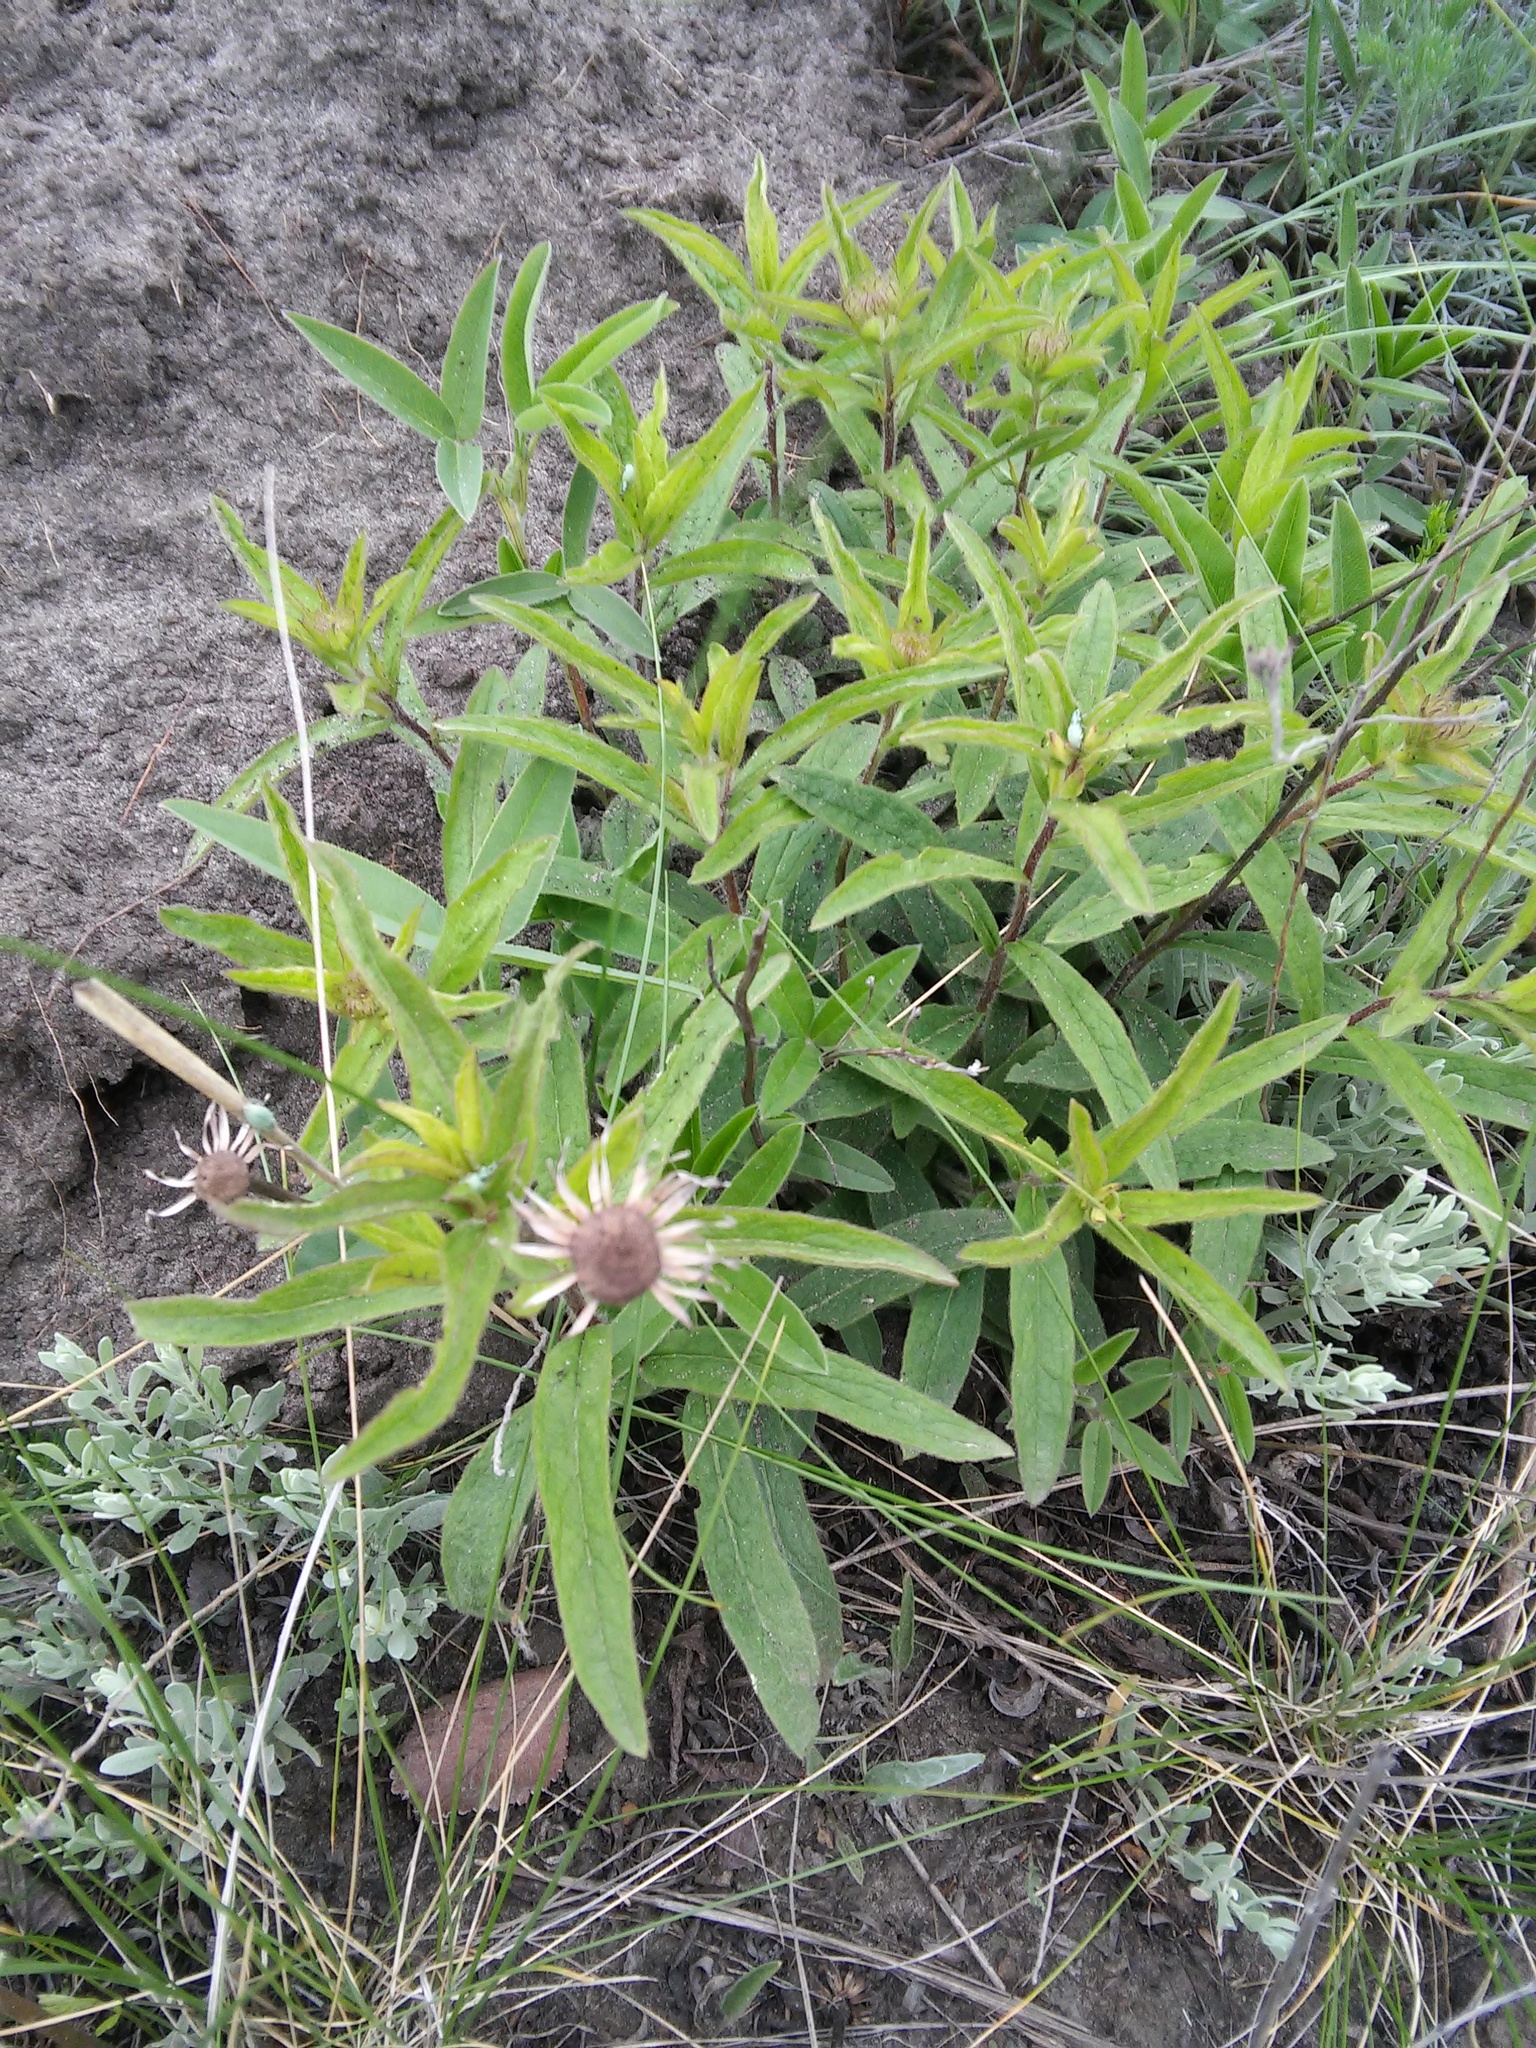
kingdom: Plantae
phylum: Tracheophyta
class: Magnoliopsida
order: Asterales
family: Asteraceae
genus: Pentanema
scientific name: Pentanema hirtum
